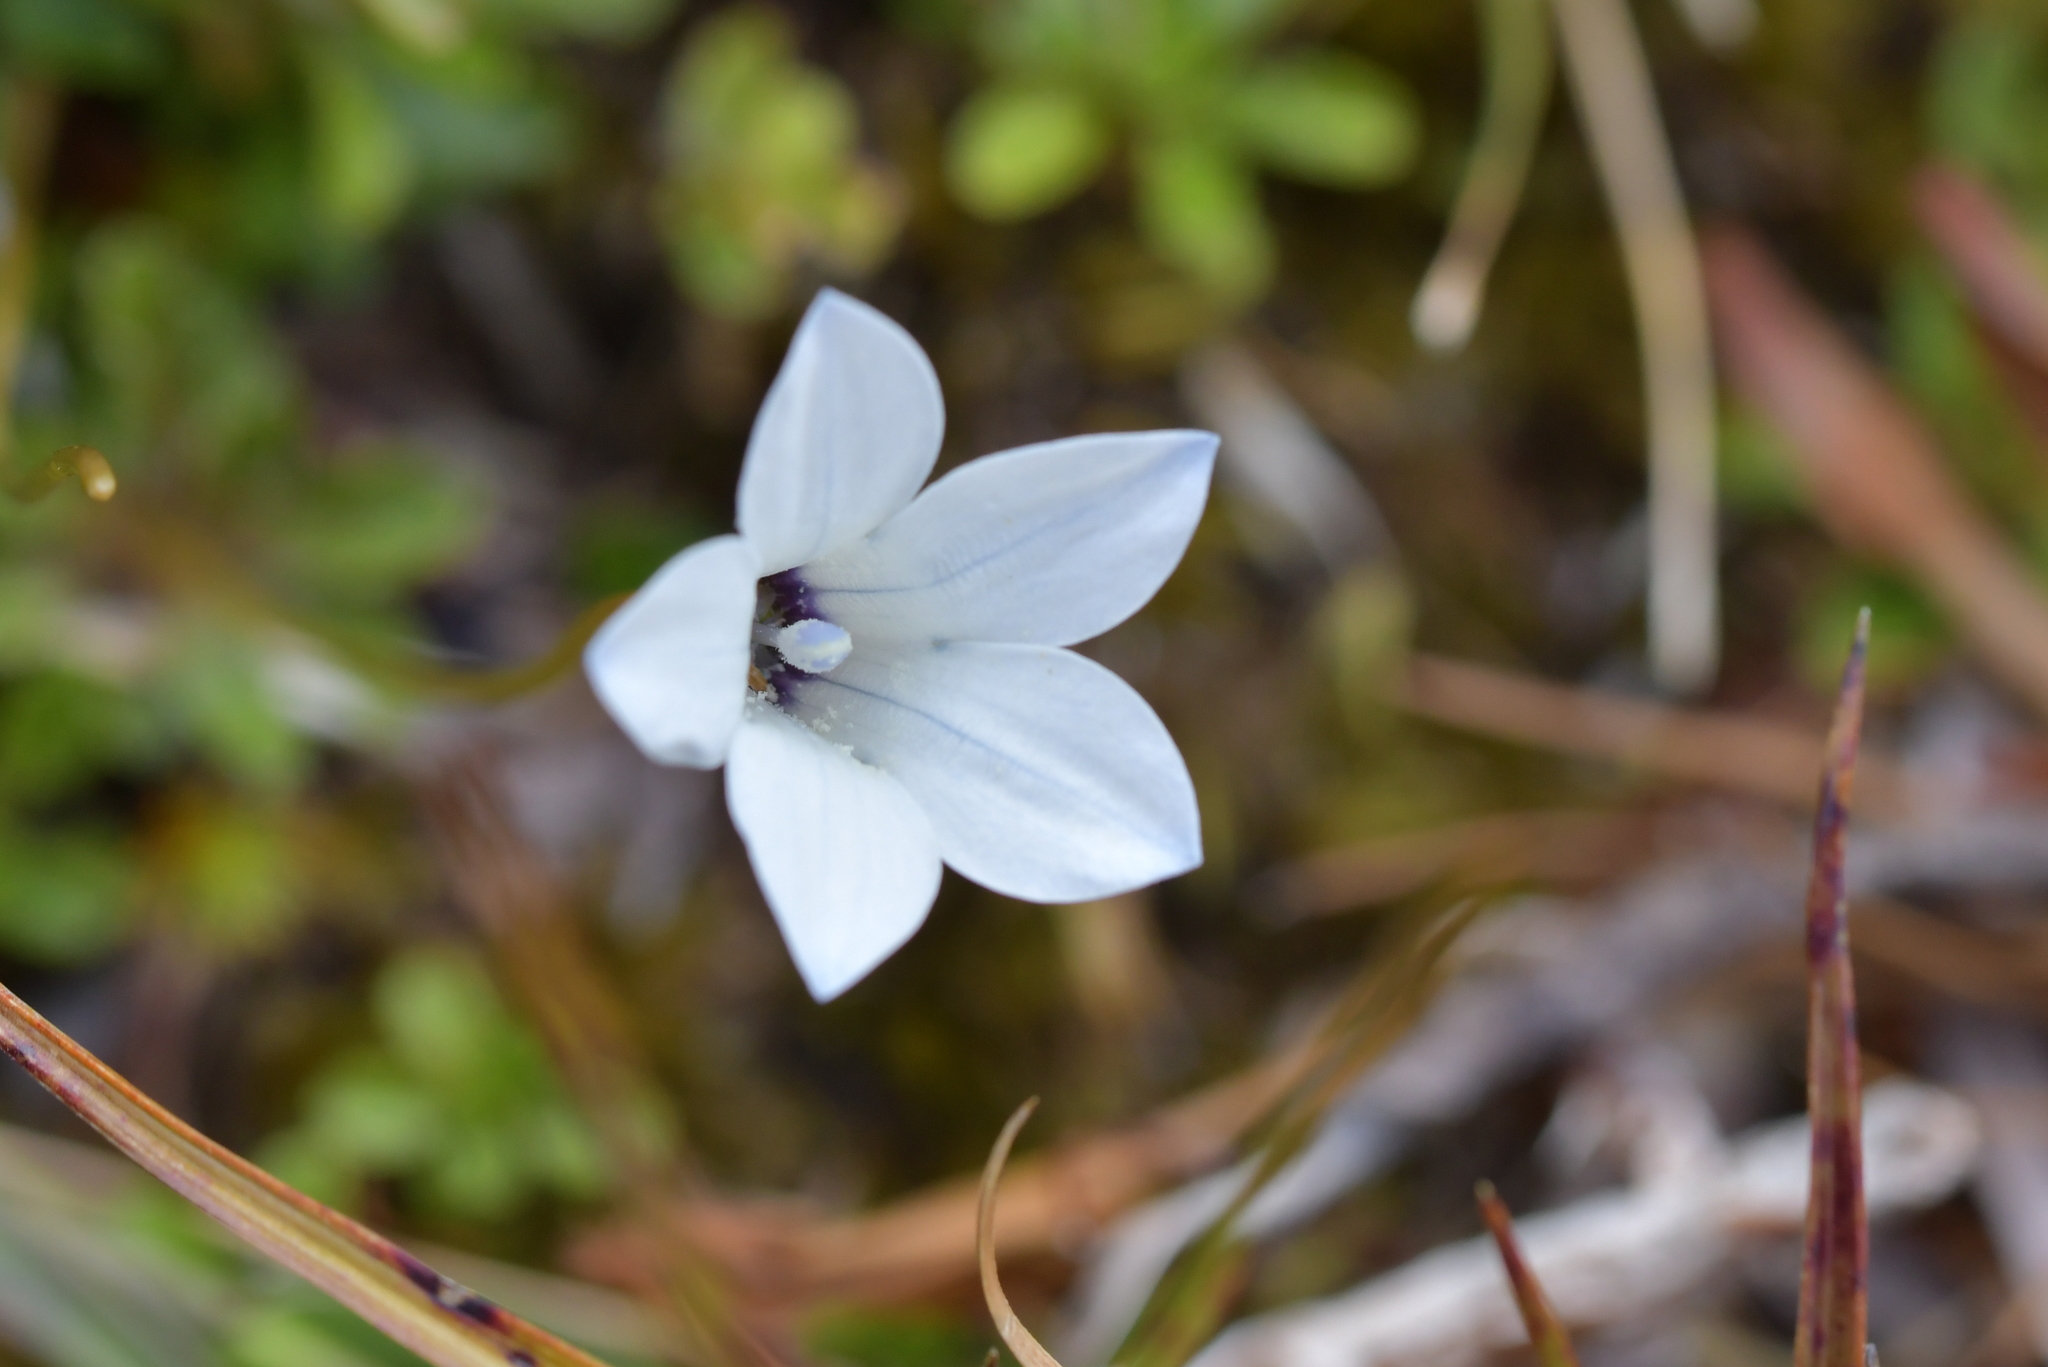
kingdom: Plantae
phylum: Tracheophyta
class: Magnoliopsida
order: Asterales
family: Campanulaceae
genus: Wahlenbergia
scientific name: Wahlenbergia albomarginata
